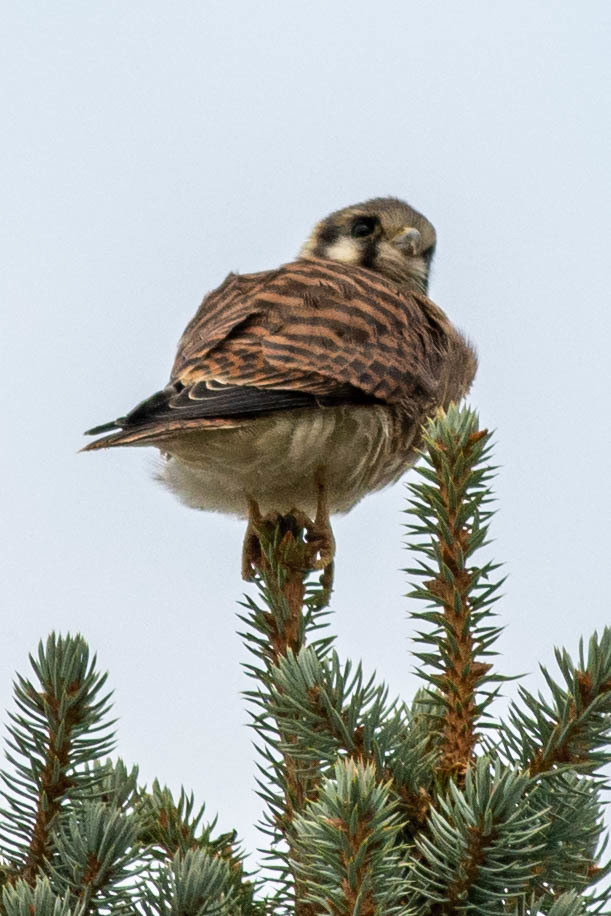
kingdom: Animalia
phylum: Chordata
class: Aves
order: Falconiformes
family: Falconidae
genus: Falco
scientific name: Falco sparverius
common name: American kestrel
